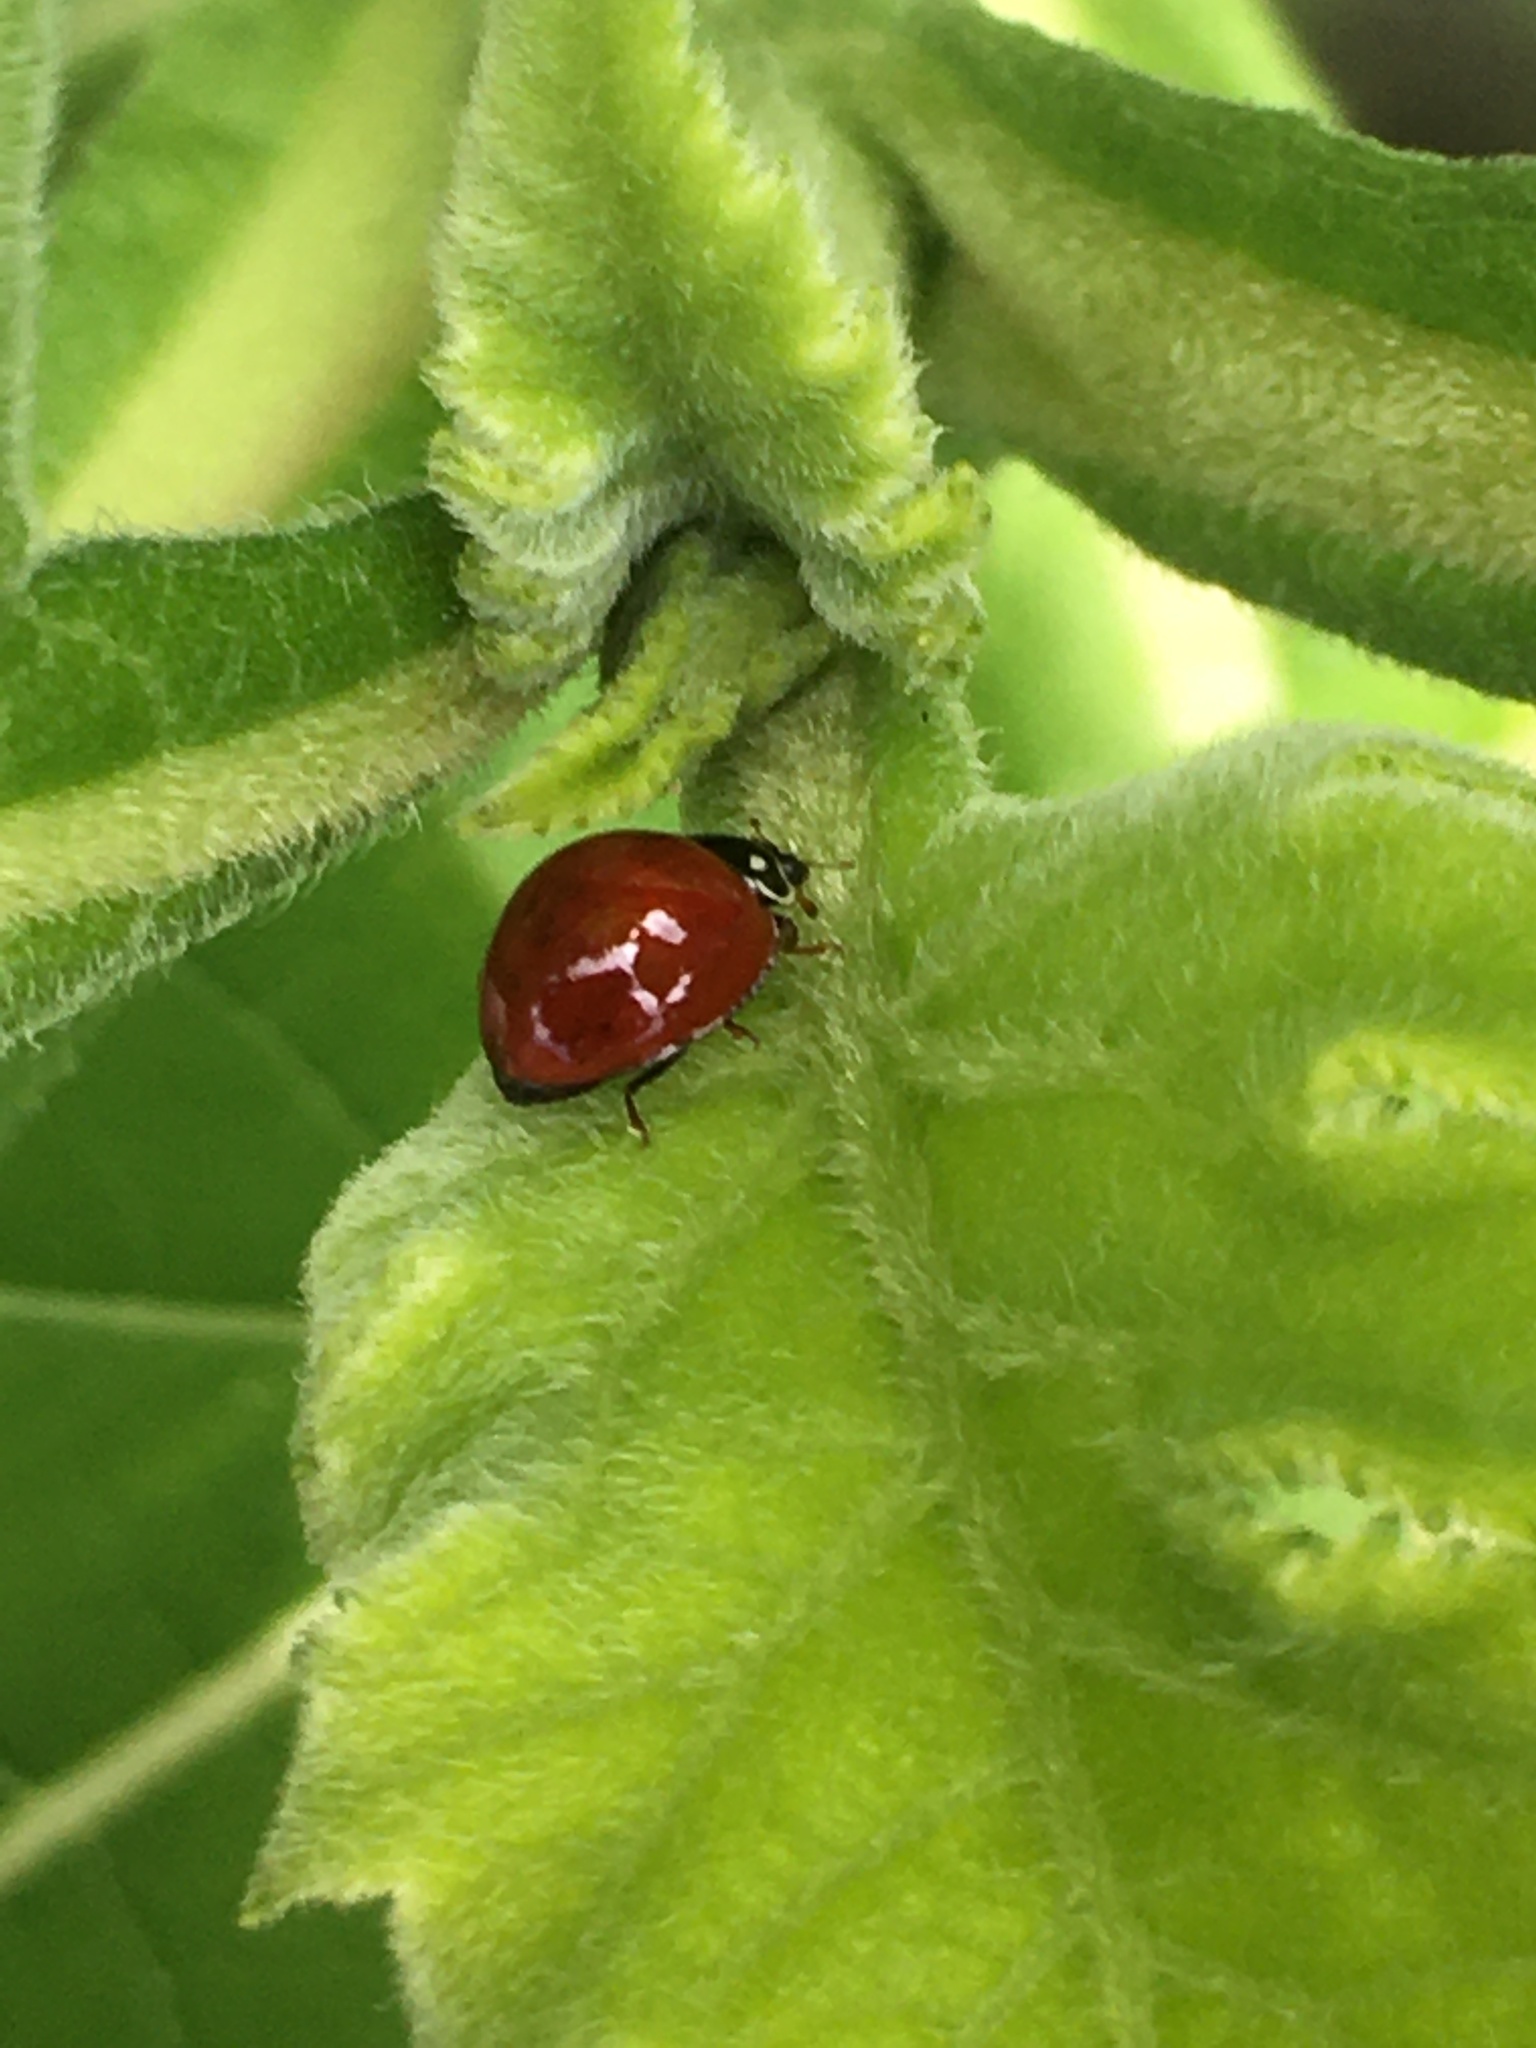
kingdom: Animalia
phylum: Arthropoda
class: Insecta
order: Coleoptera
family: Coccinellidae
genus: Cycloneda
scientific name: Cycloneda sanguinea
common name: Ladybird beetle
